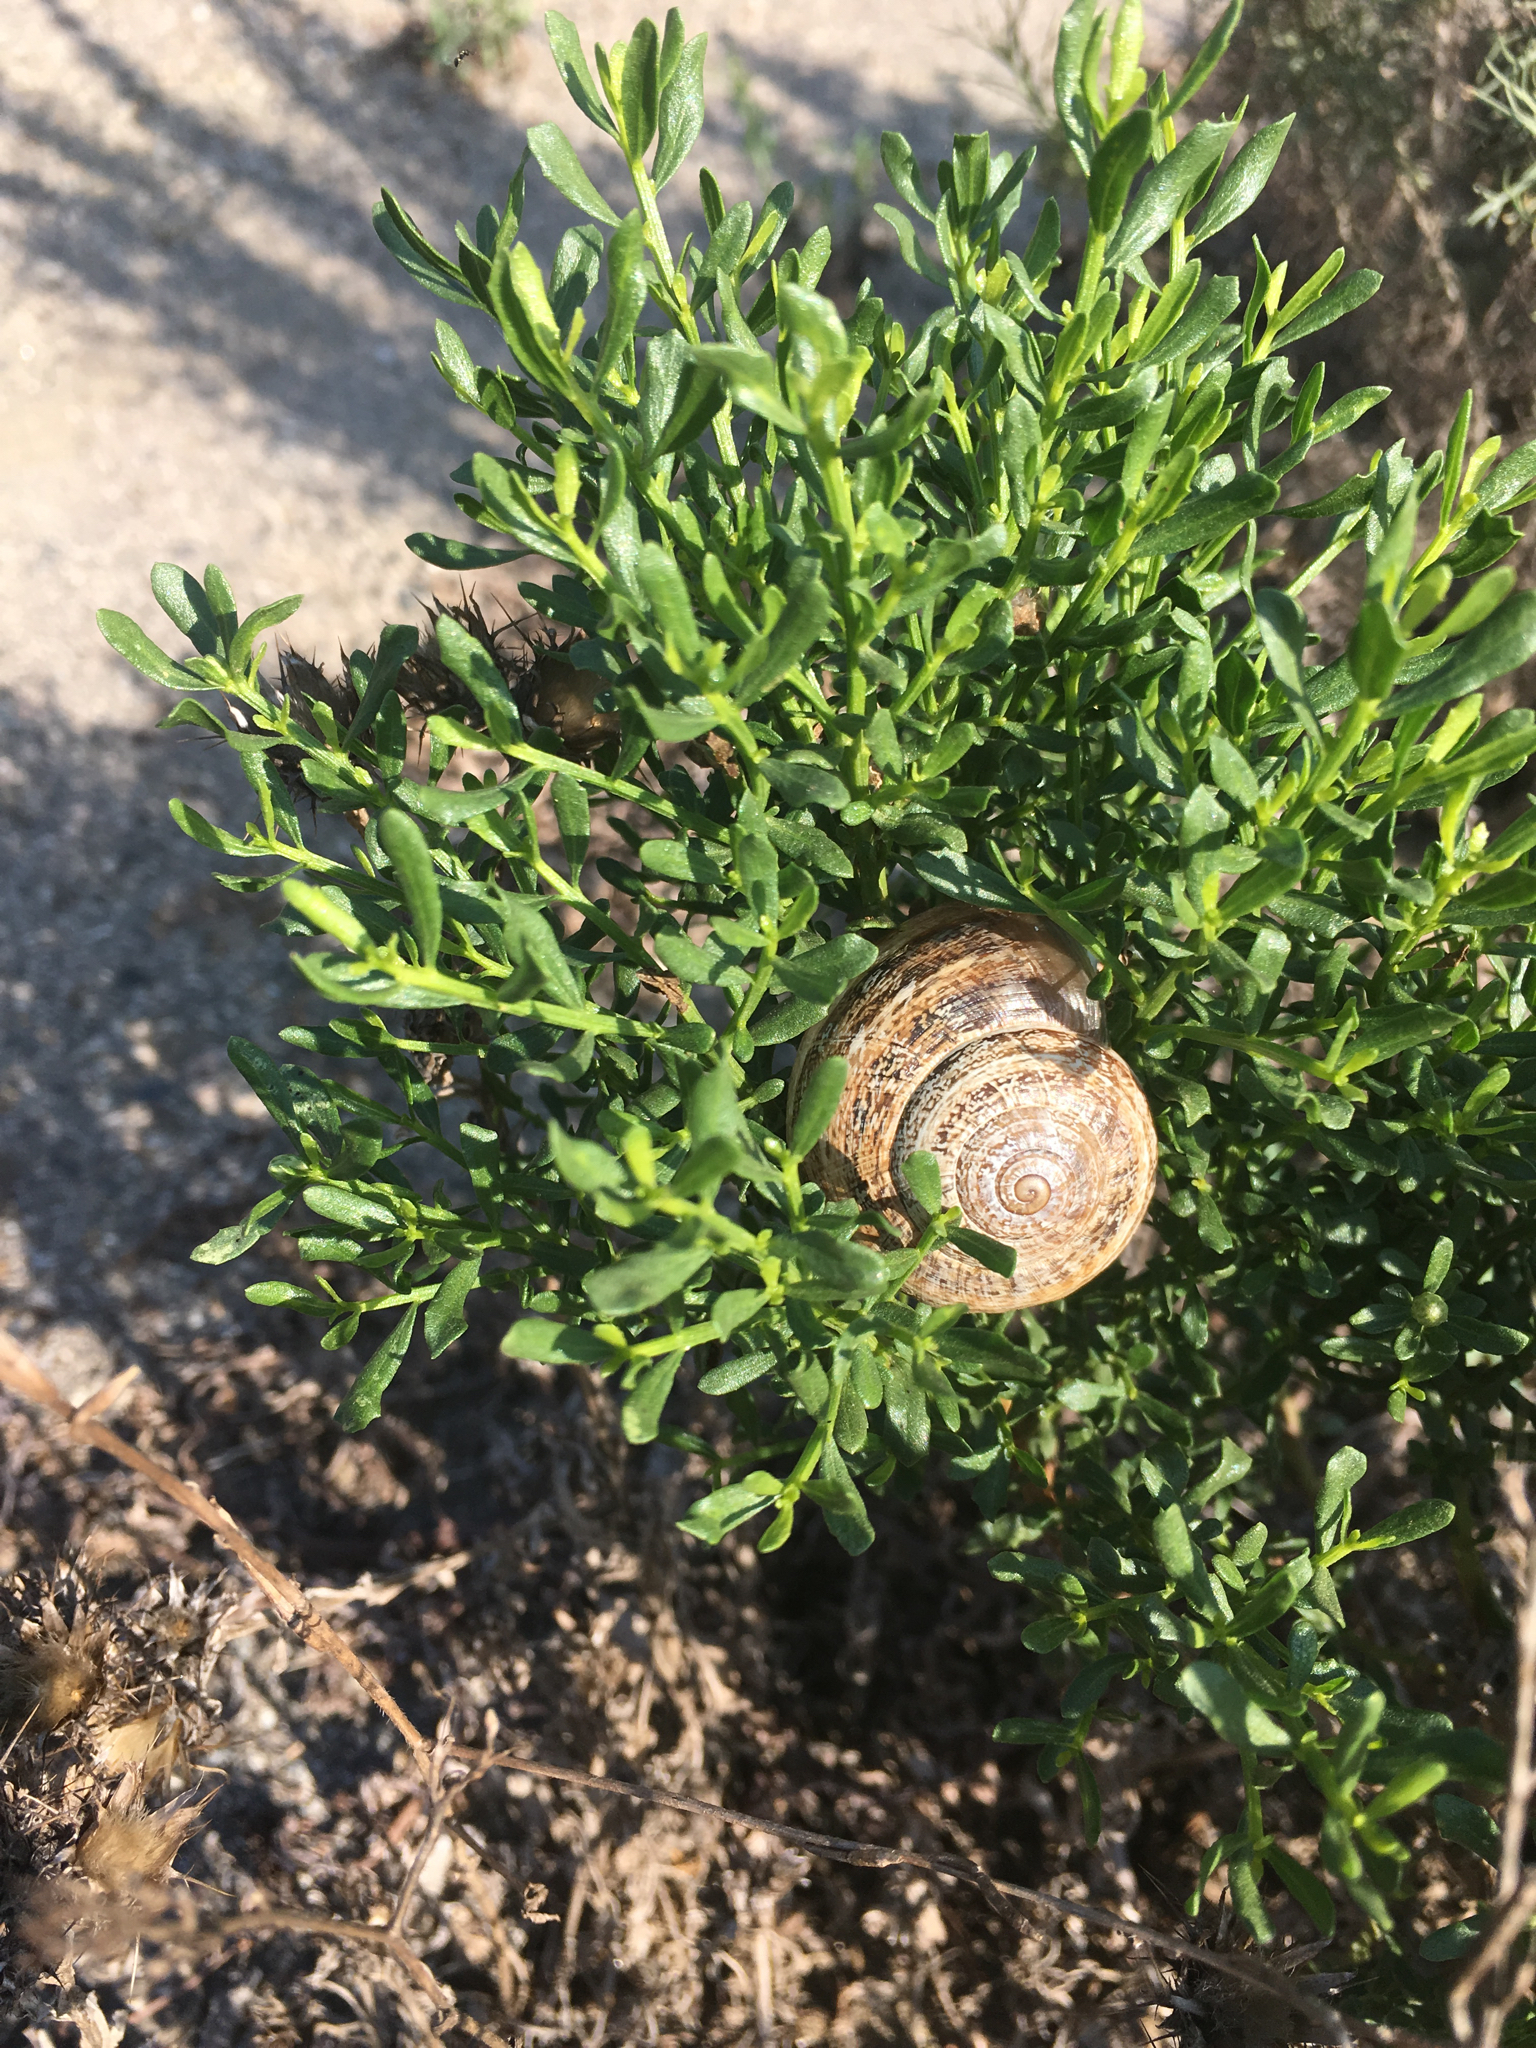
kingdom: Animalia
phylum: Mollusca
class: Gastropoda
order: Stylommatophora
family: Helicidae
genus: Otala
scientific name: Otala lactea
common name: Milk snail
